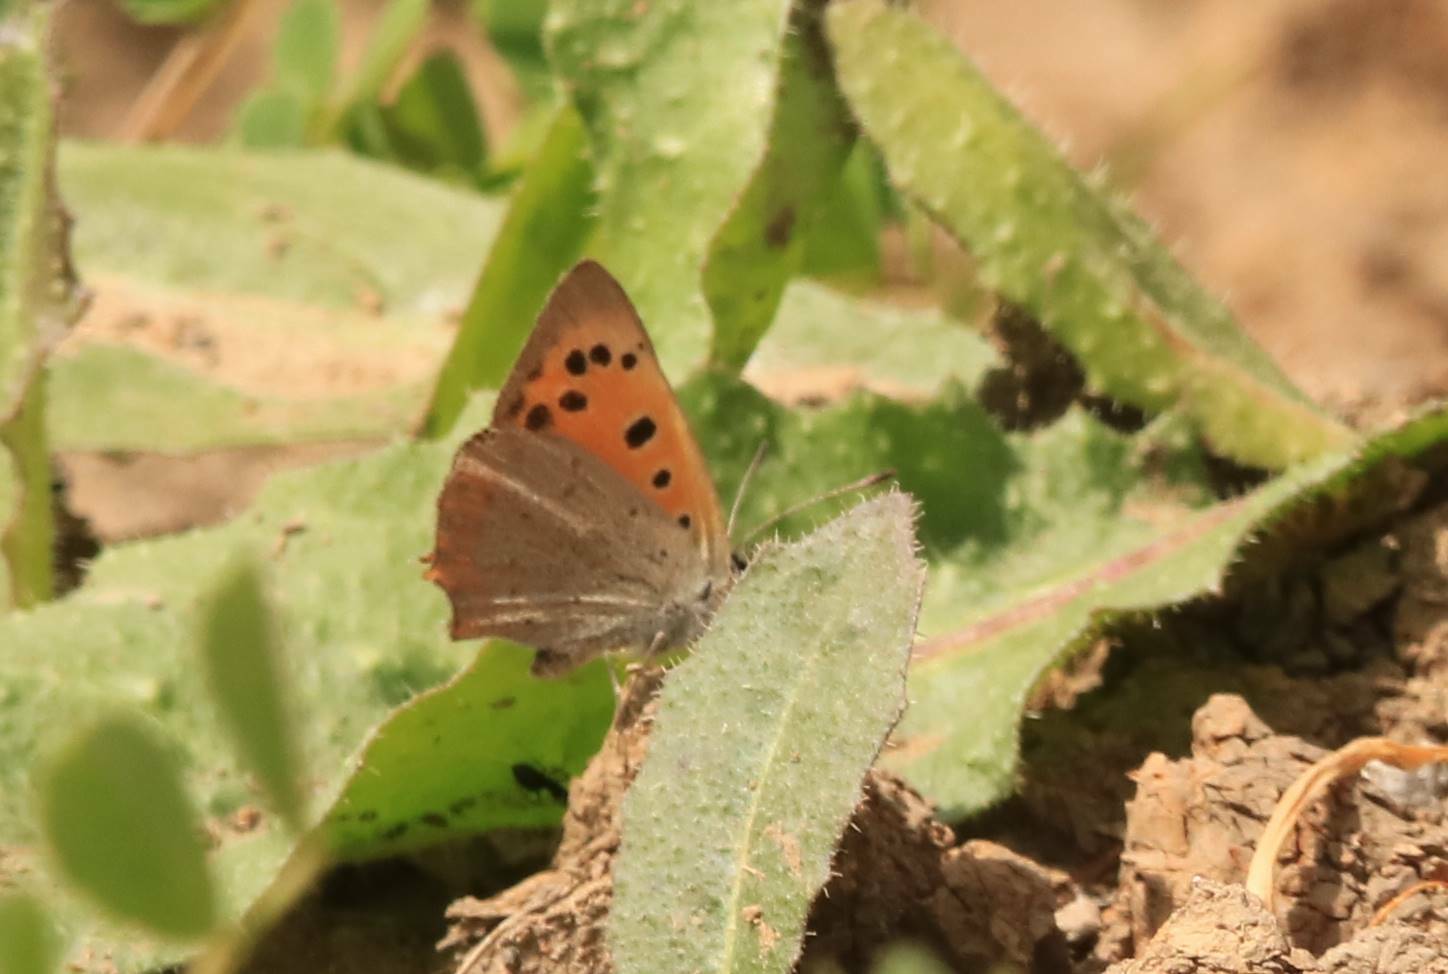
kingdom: Animalia
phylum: Arthropoda
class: Insecta
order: Lepidoptera
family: Lycaenidae
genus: Lycaena
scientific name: Lycaena phlaeas
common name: Small copper
